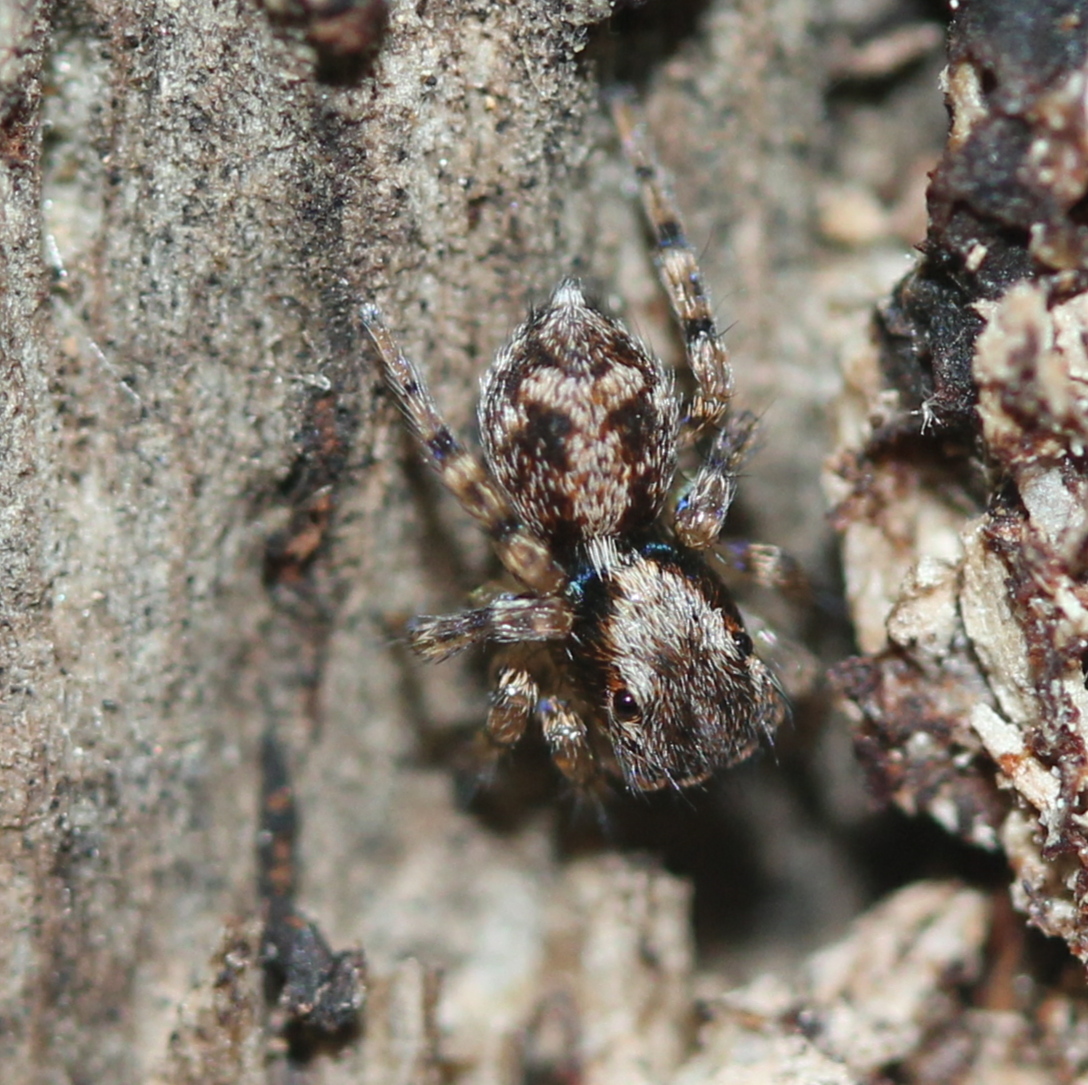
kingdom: Animalia
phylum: Arthropoda
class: Arachnida
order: Araneae
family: Salticidae
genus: Naphrys
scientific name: Naphrys pulex
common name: Flea jumping spider
